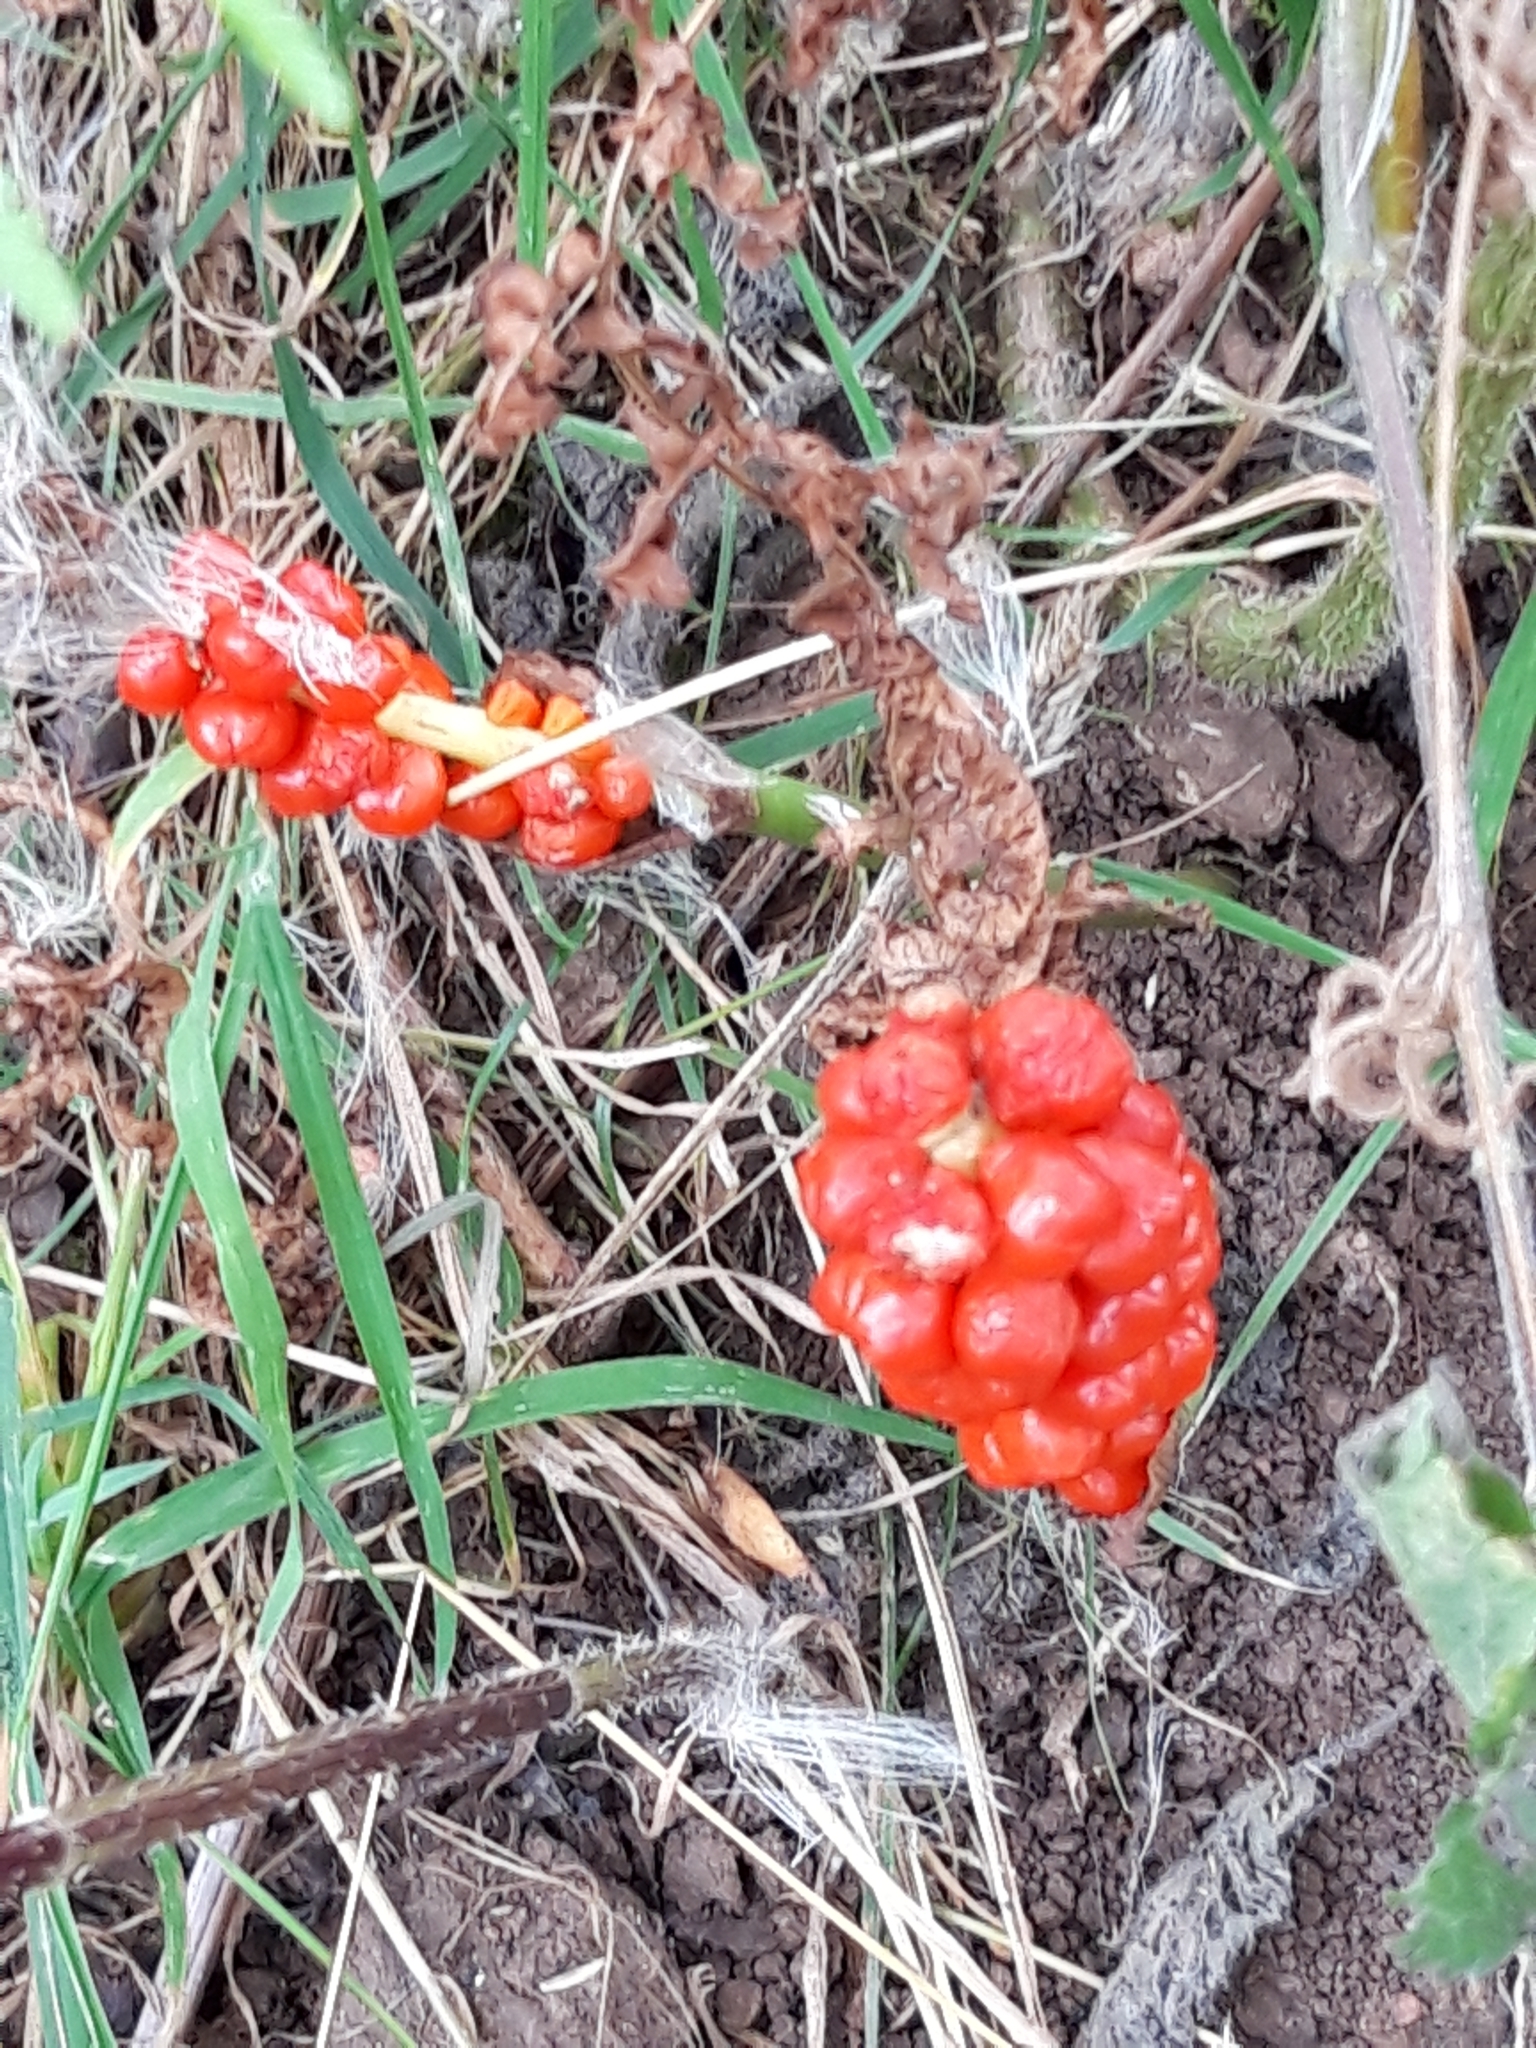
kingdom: Plantae
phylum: Tracheophyta
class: Liliopsida
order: Alismatales
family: Araceae
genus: Arum
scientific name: Arum maculatum
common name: Lords-and-ladies
